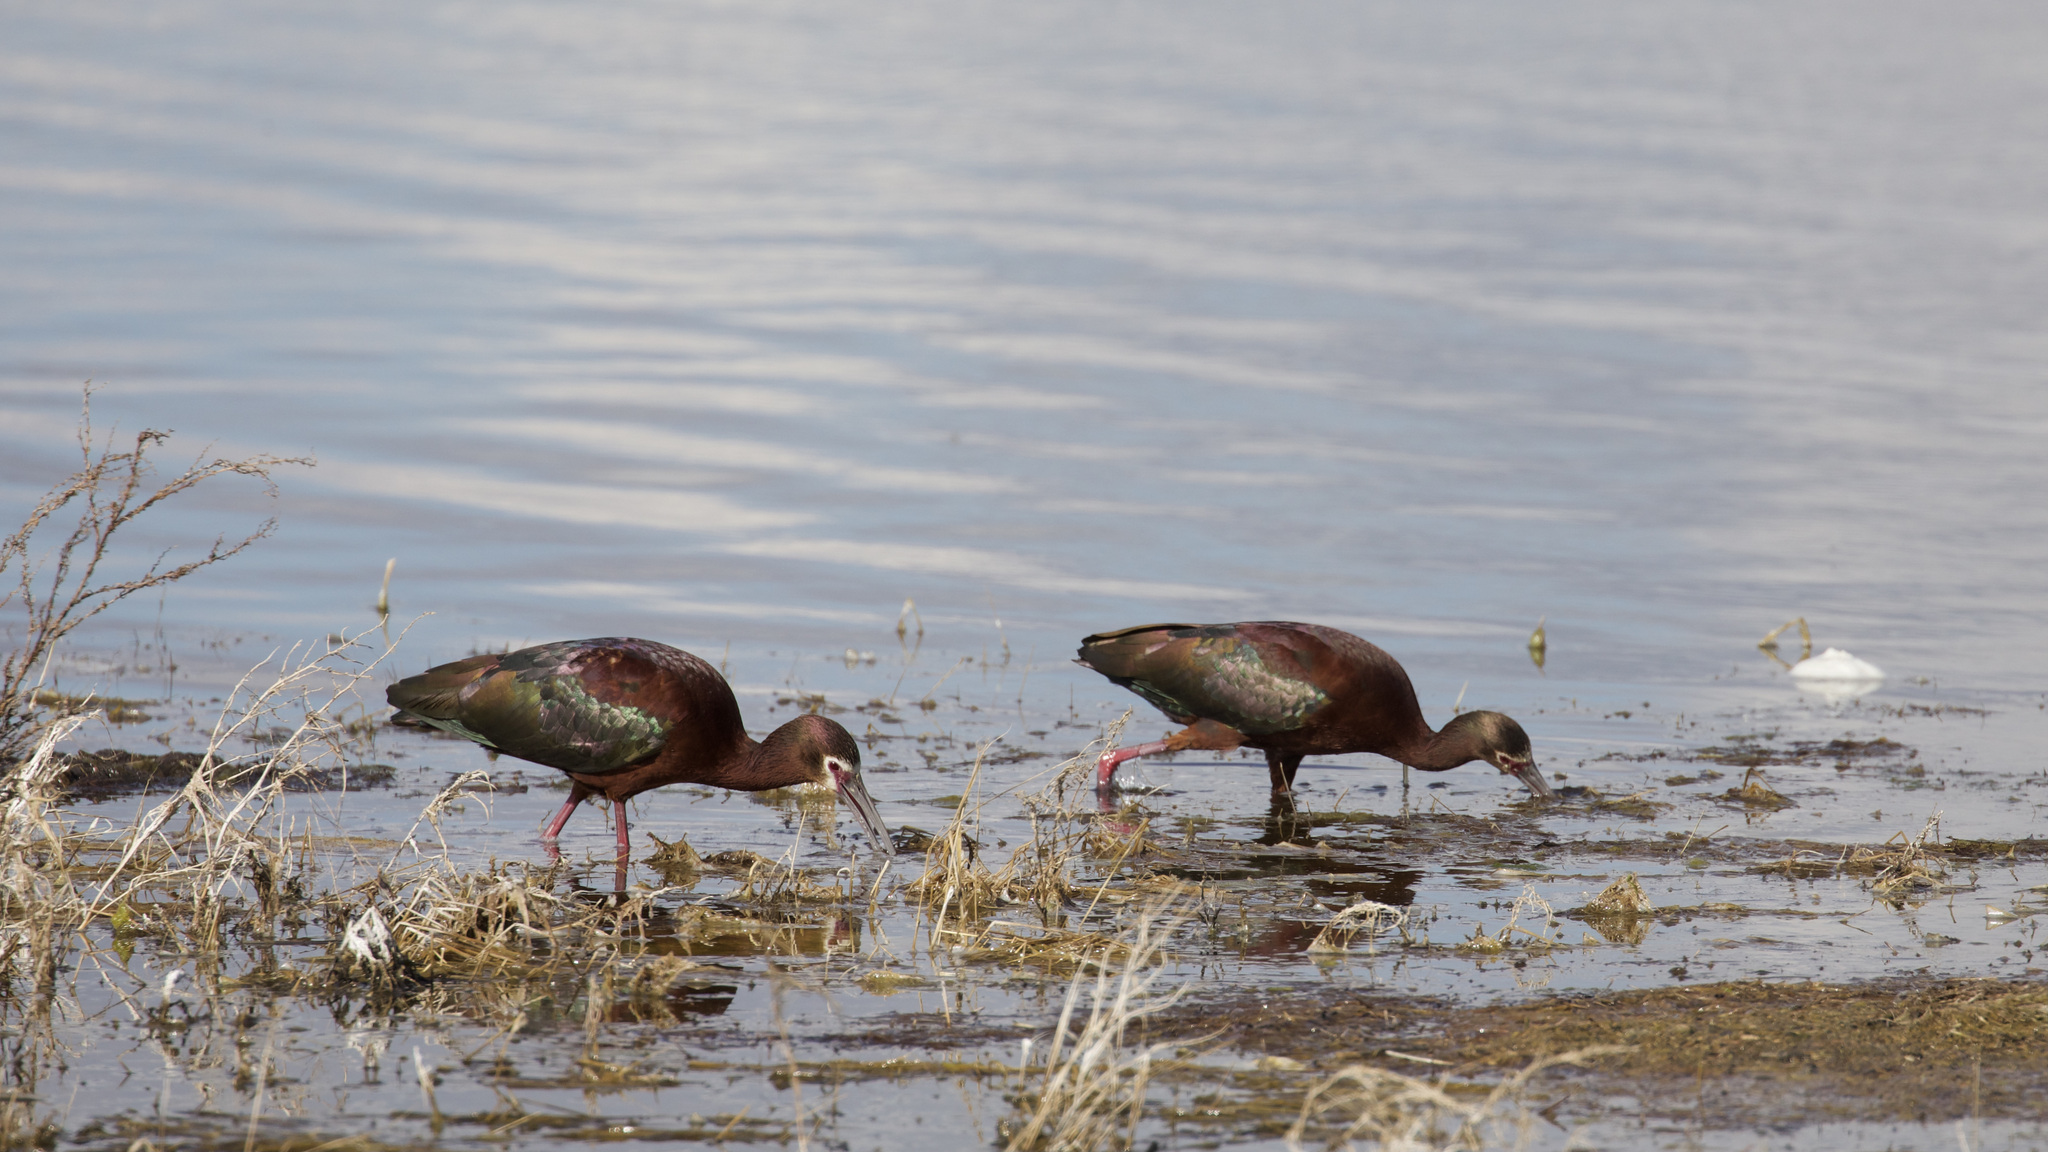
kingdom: Animalia
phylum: Chordata
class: Aves
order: Pelecaniformes
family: Threskiornithidae
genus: Plegadis
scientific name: Plegadis chihi
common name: White-faced ibis
